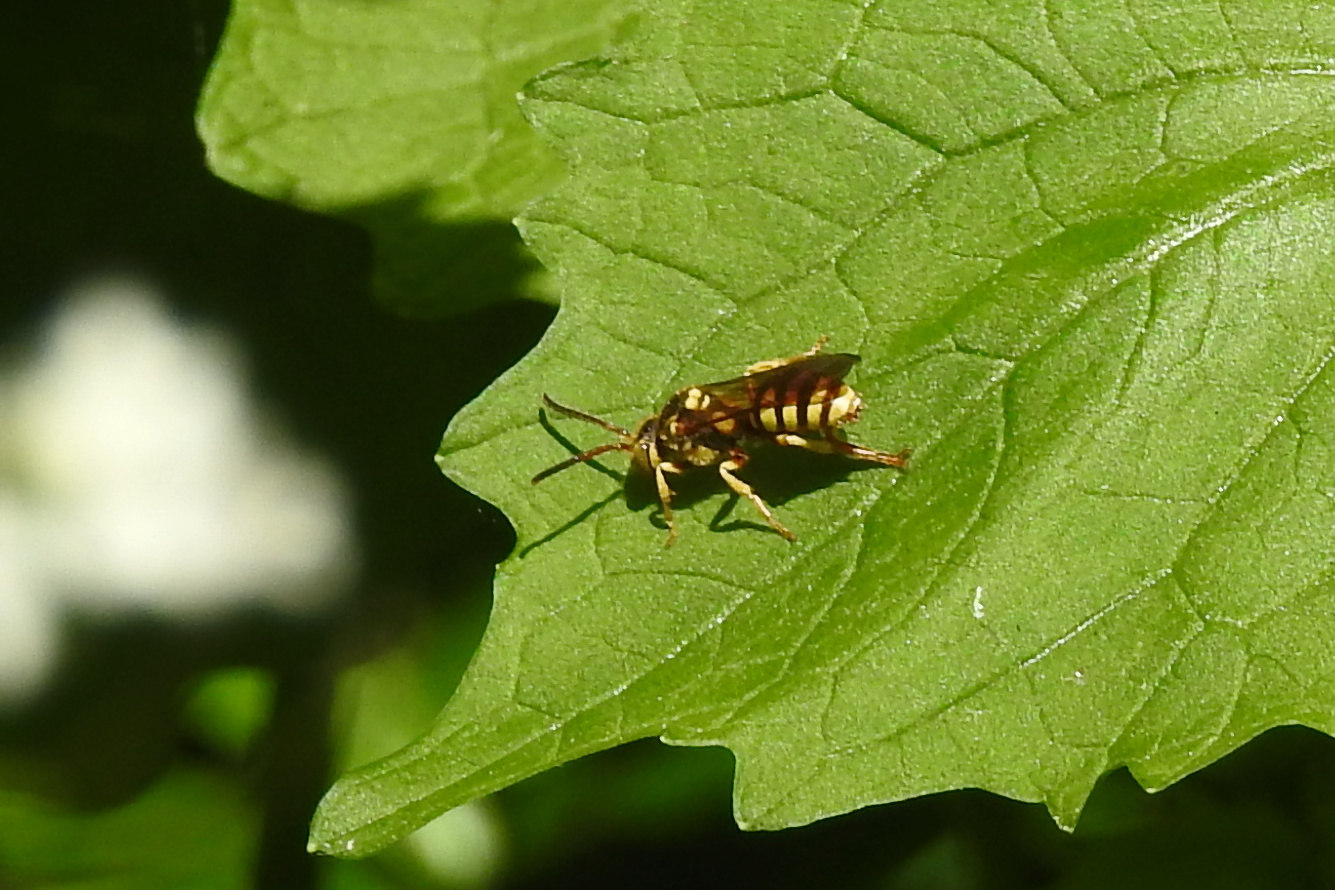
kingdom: Animalia
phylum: Arthropoda
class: Insecta
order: Hymenoptera
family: Apidae
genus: Nomada
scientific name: Nomada
